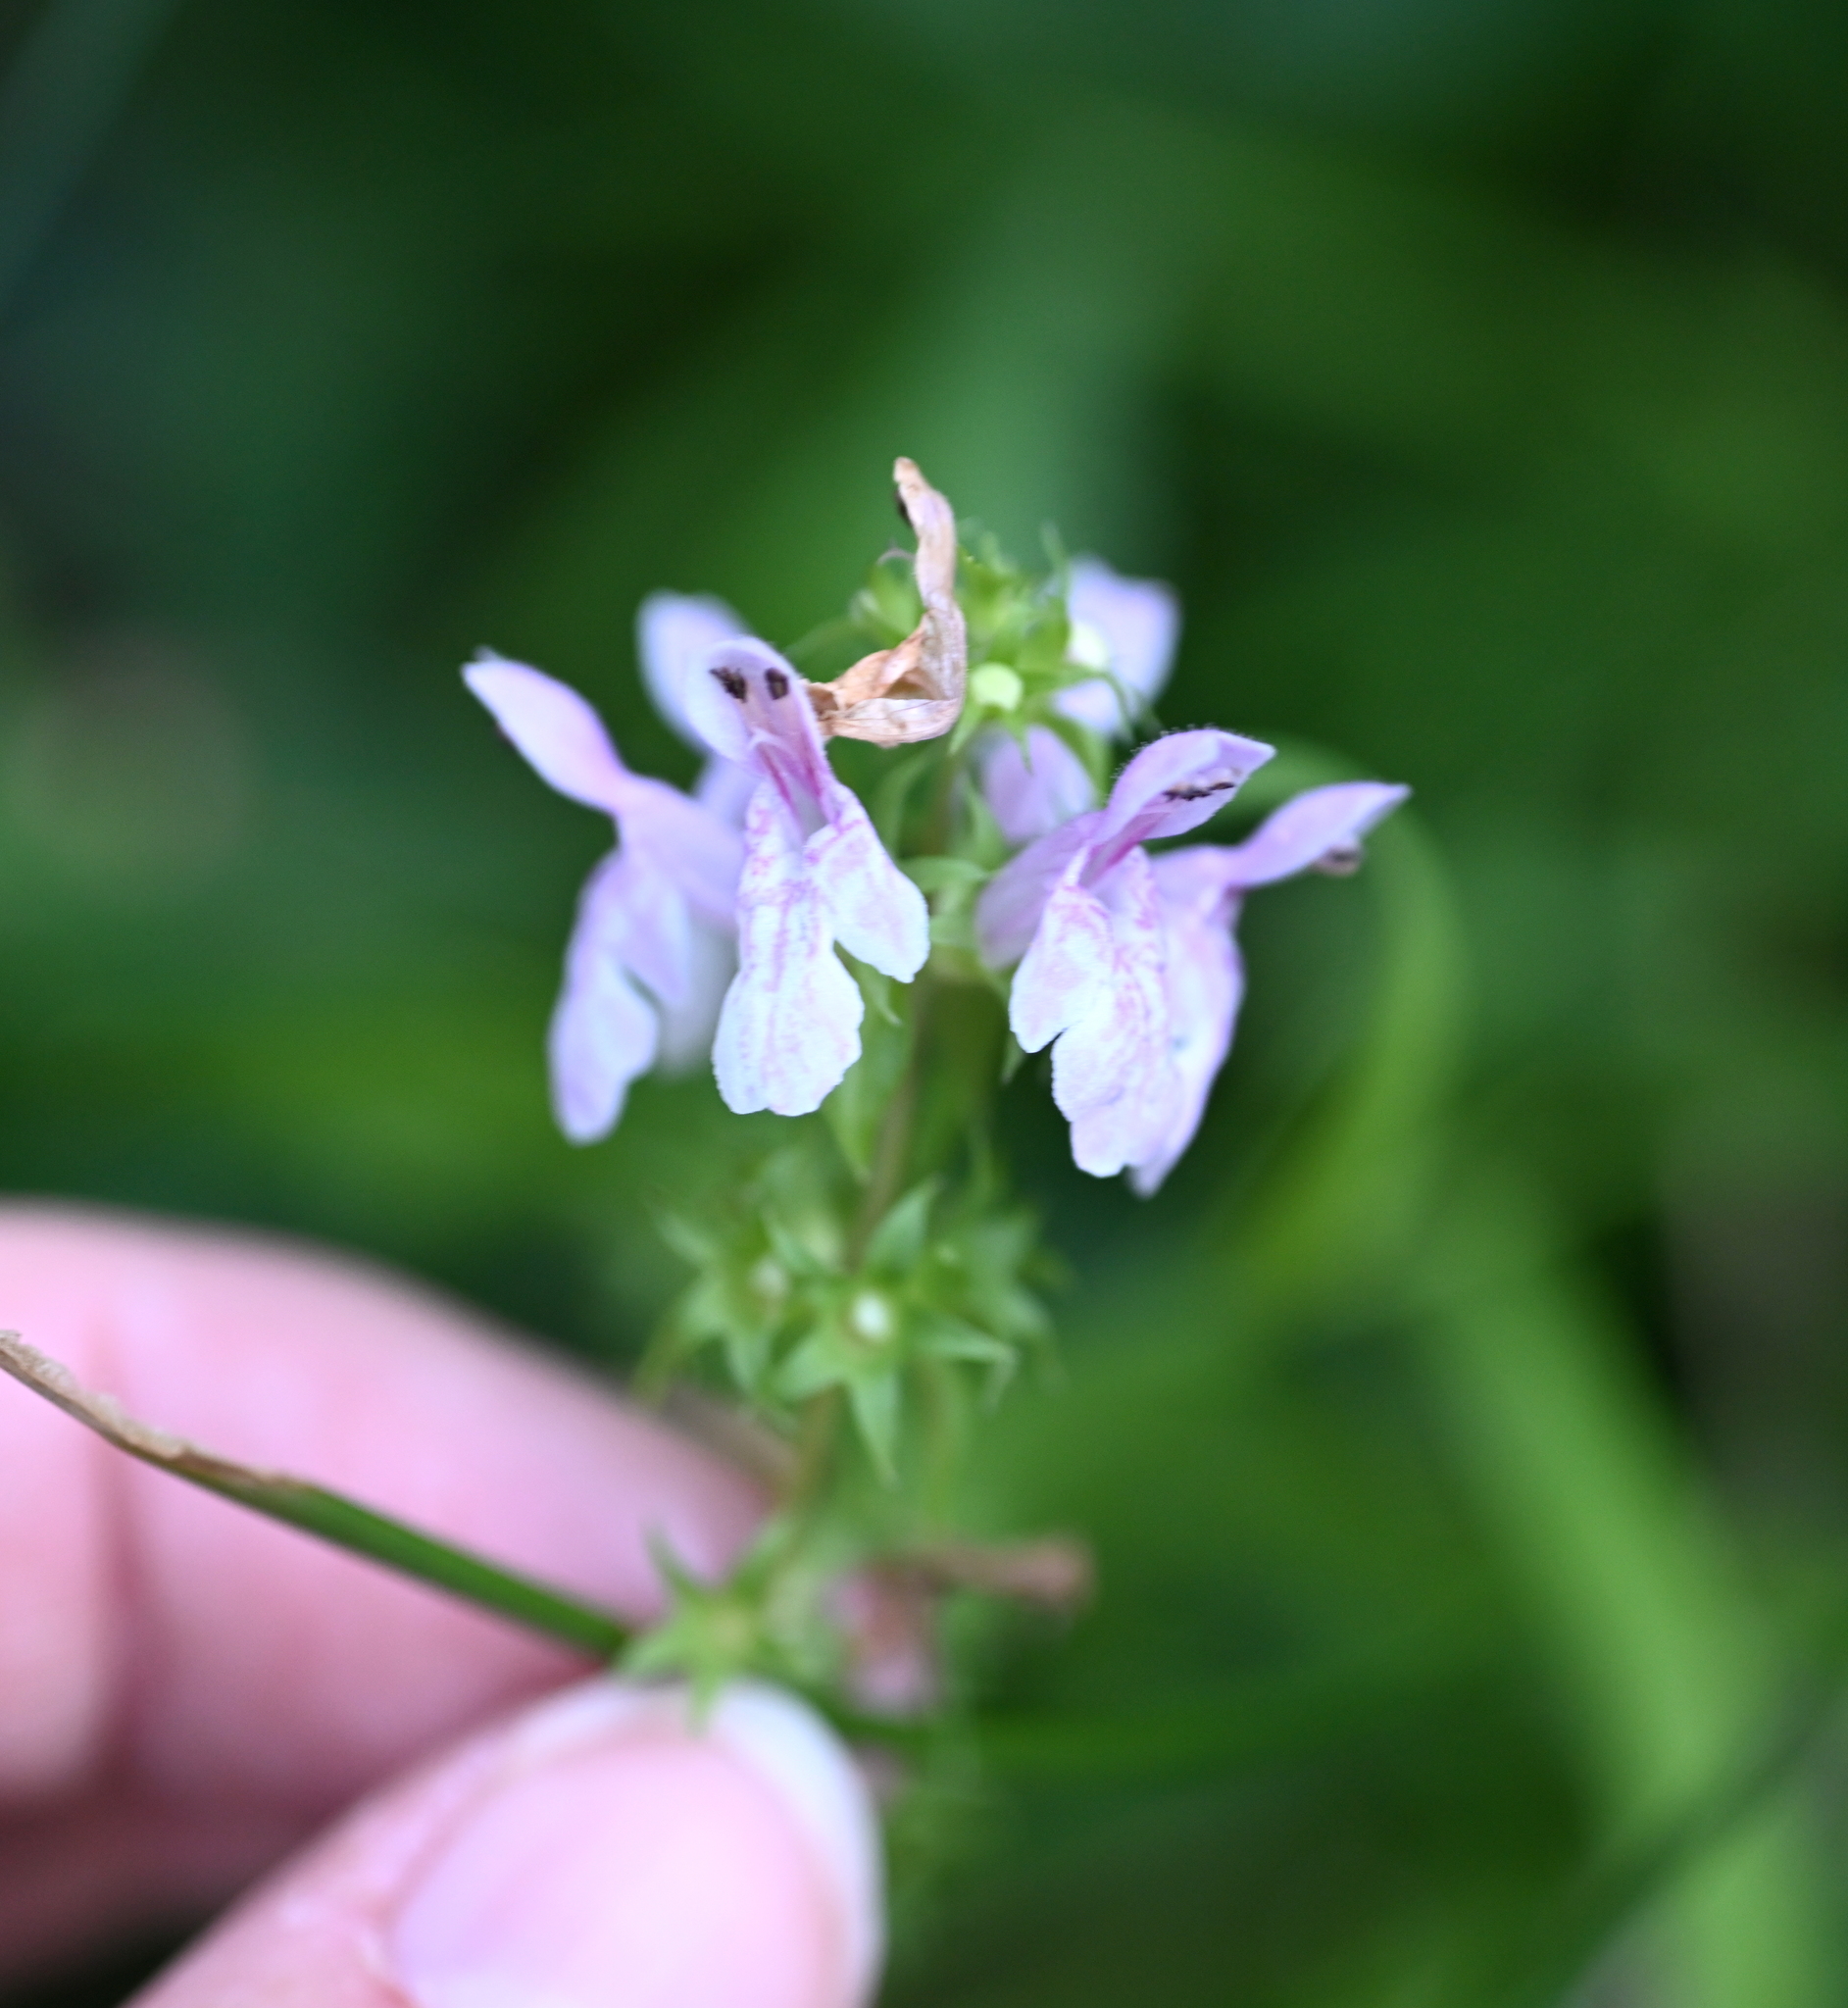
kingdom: Plantae
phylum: Tracheophyta
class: Magnoliopsida
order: Lamiales
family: Lamiaceae
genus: Stachys
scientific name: Stachys tenuifolia
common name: Smooth hedge-nettle
